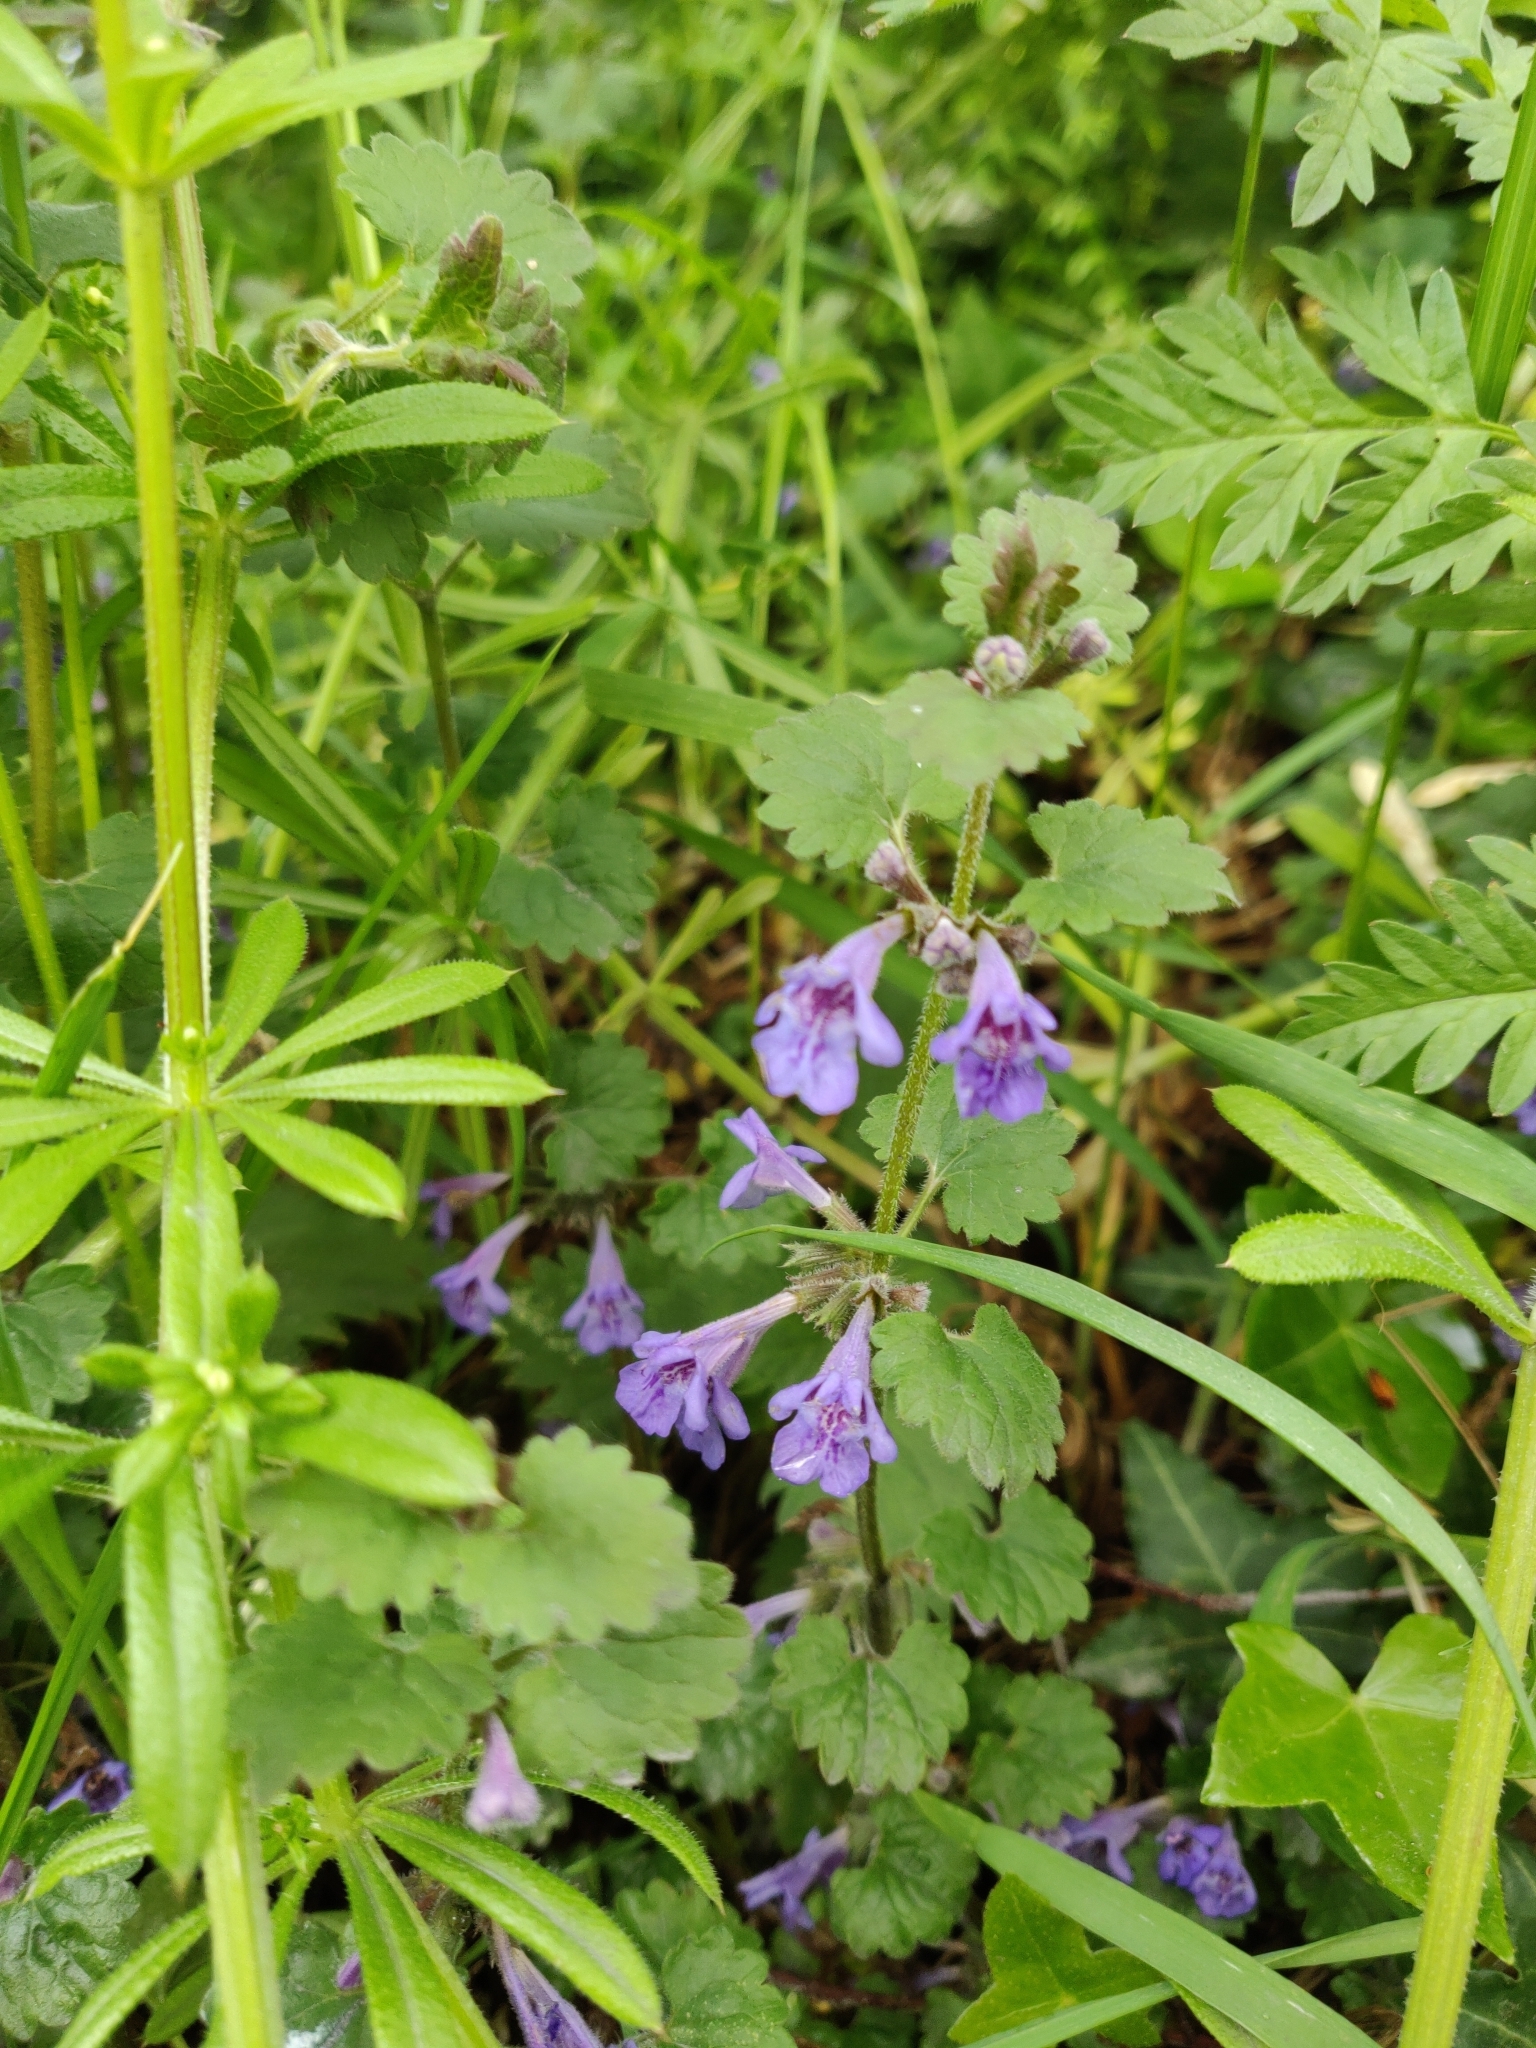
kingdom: Plantae
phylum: Tracheophyta
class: Magnoliopsida
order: Lamiales
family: Lamiaceae
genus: Glechoma
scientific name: Glechoma hederacea
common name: Ground ivy
